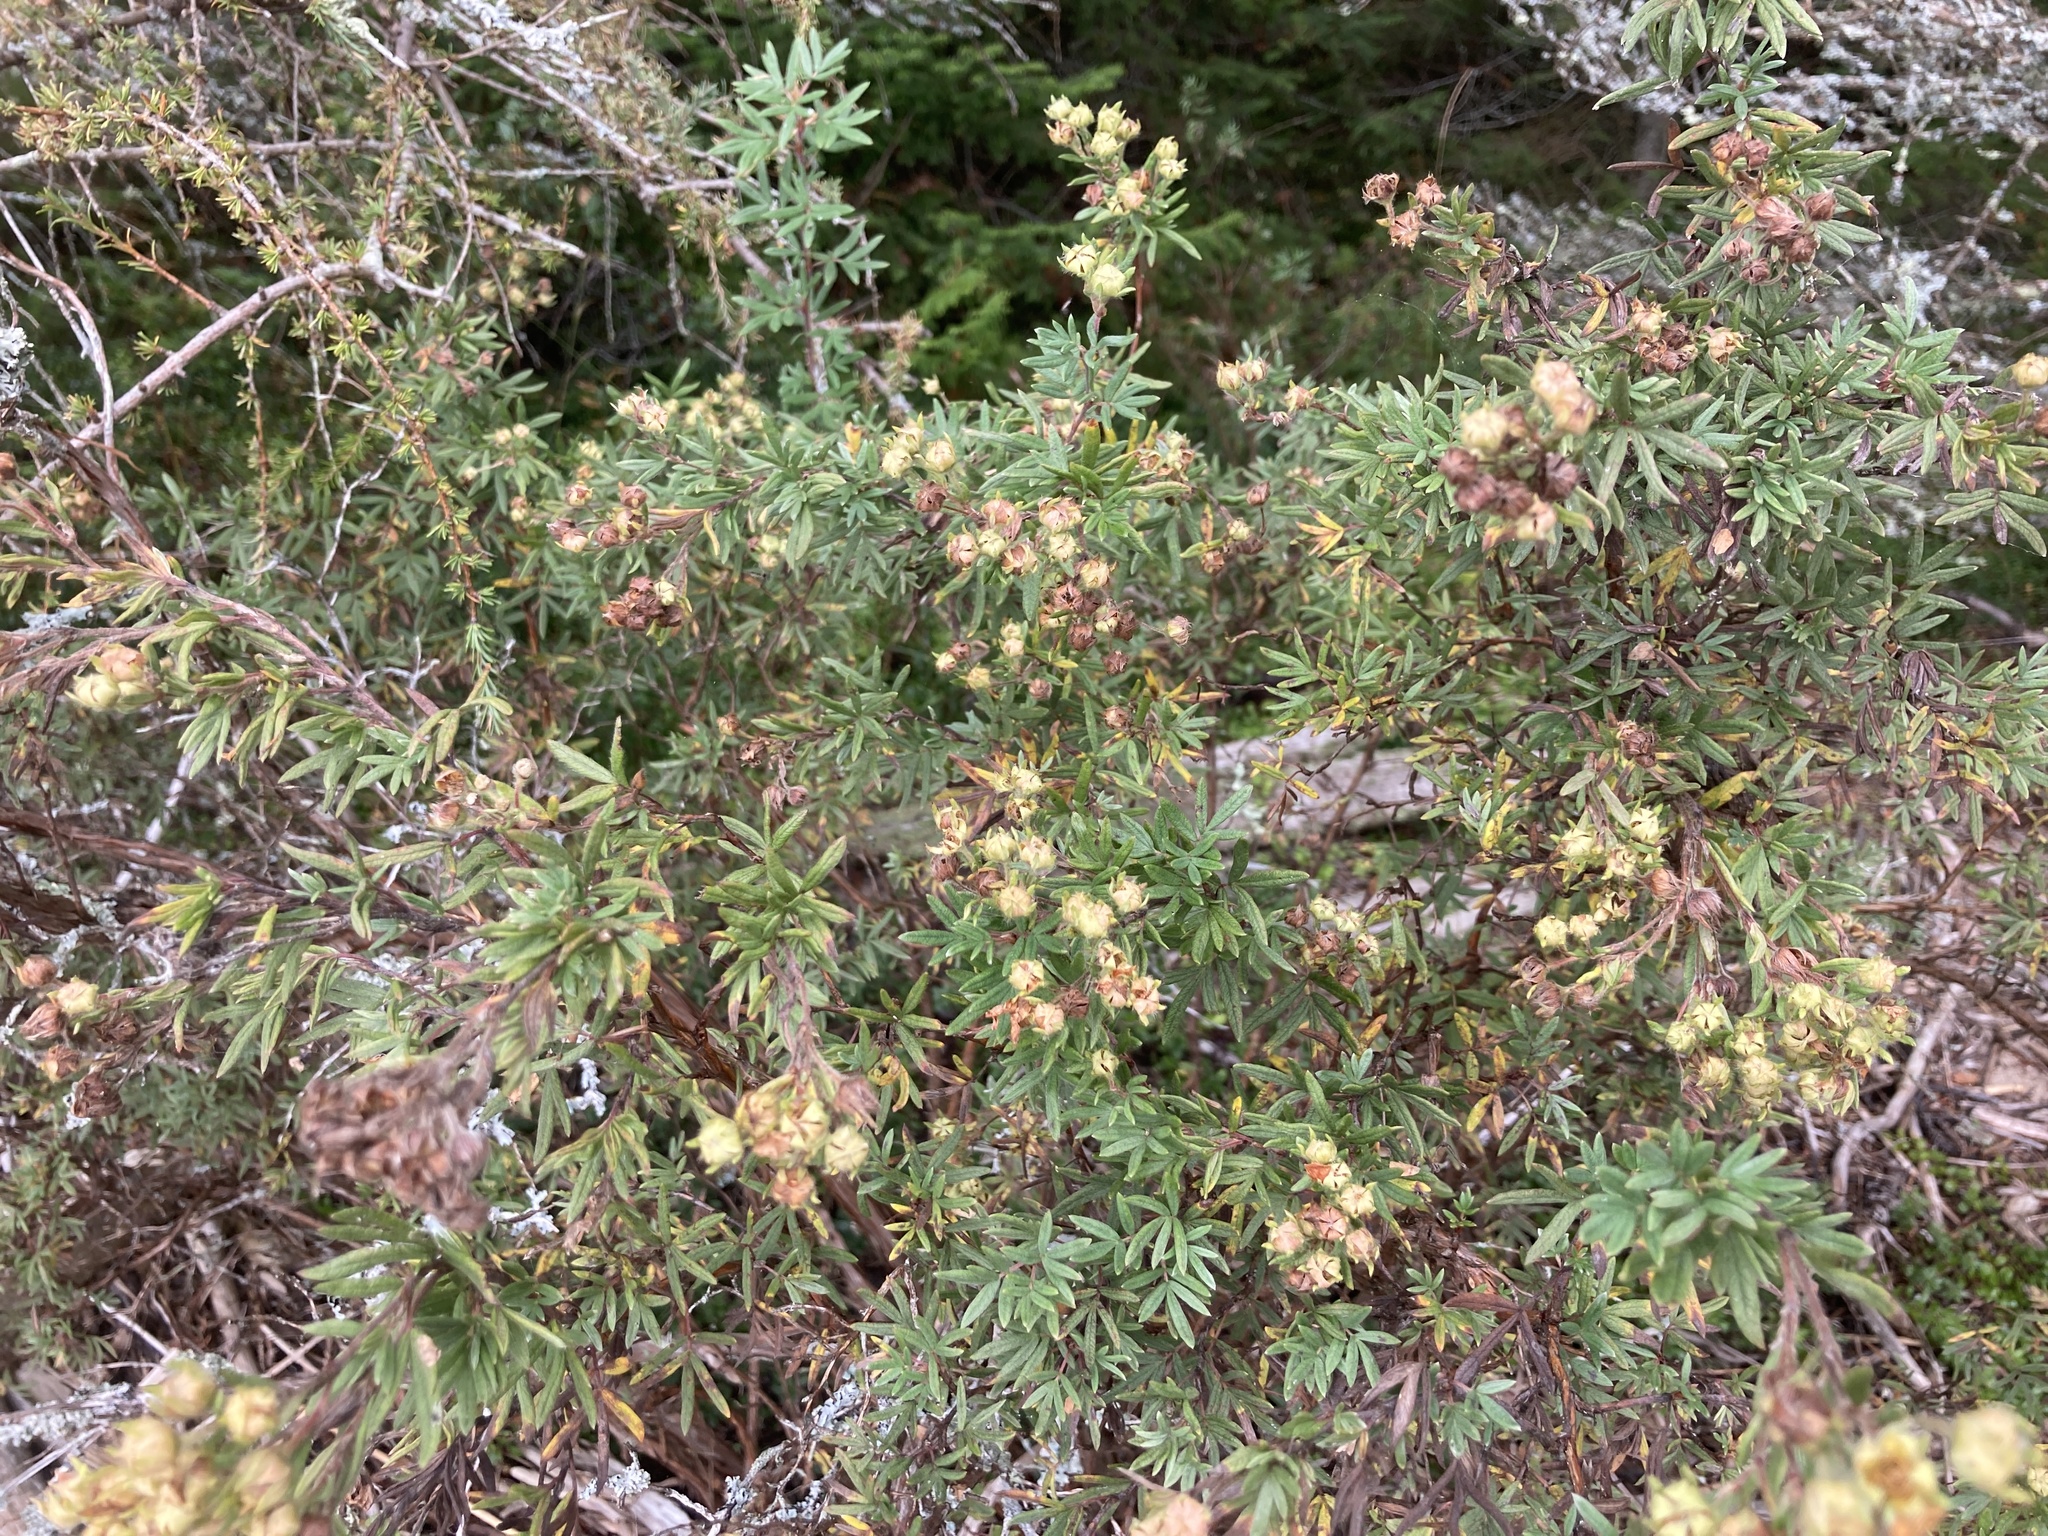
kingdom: Plantae
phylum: Tracheophyta
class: Magnoliopsida
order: Rosales
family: Rosaceae
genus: Dasiphora
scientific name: Dasiphora fruticosa
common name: Shrubby cinquefoil
